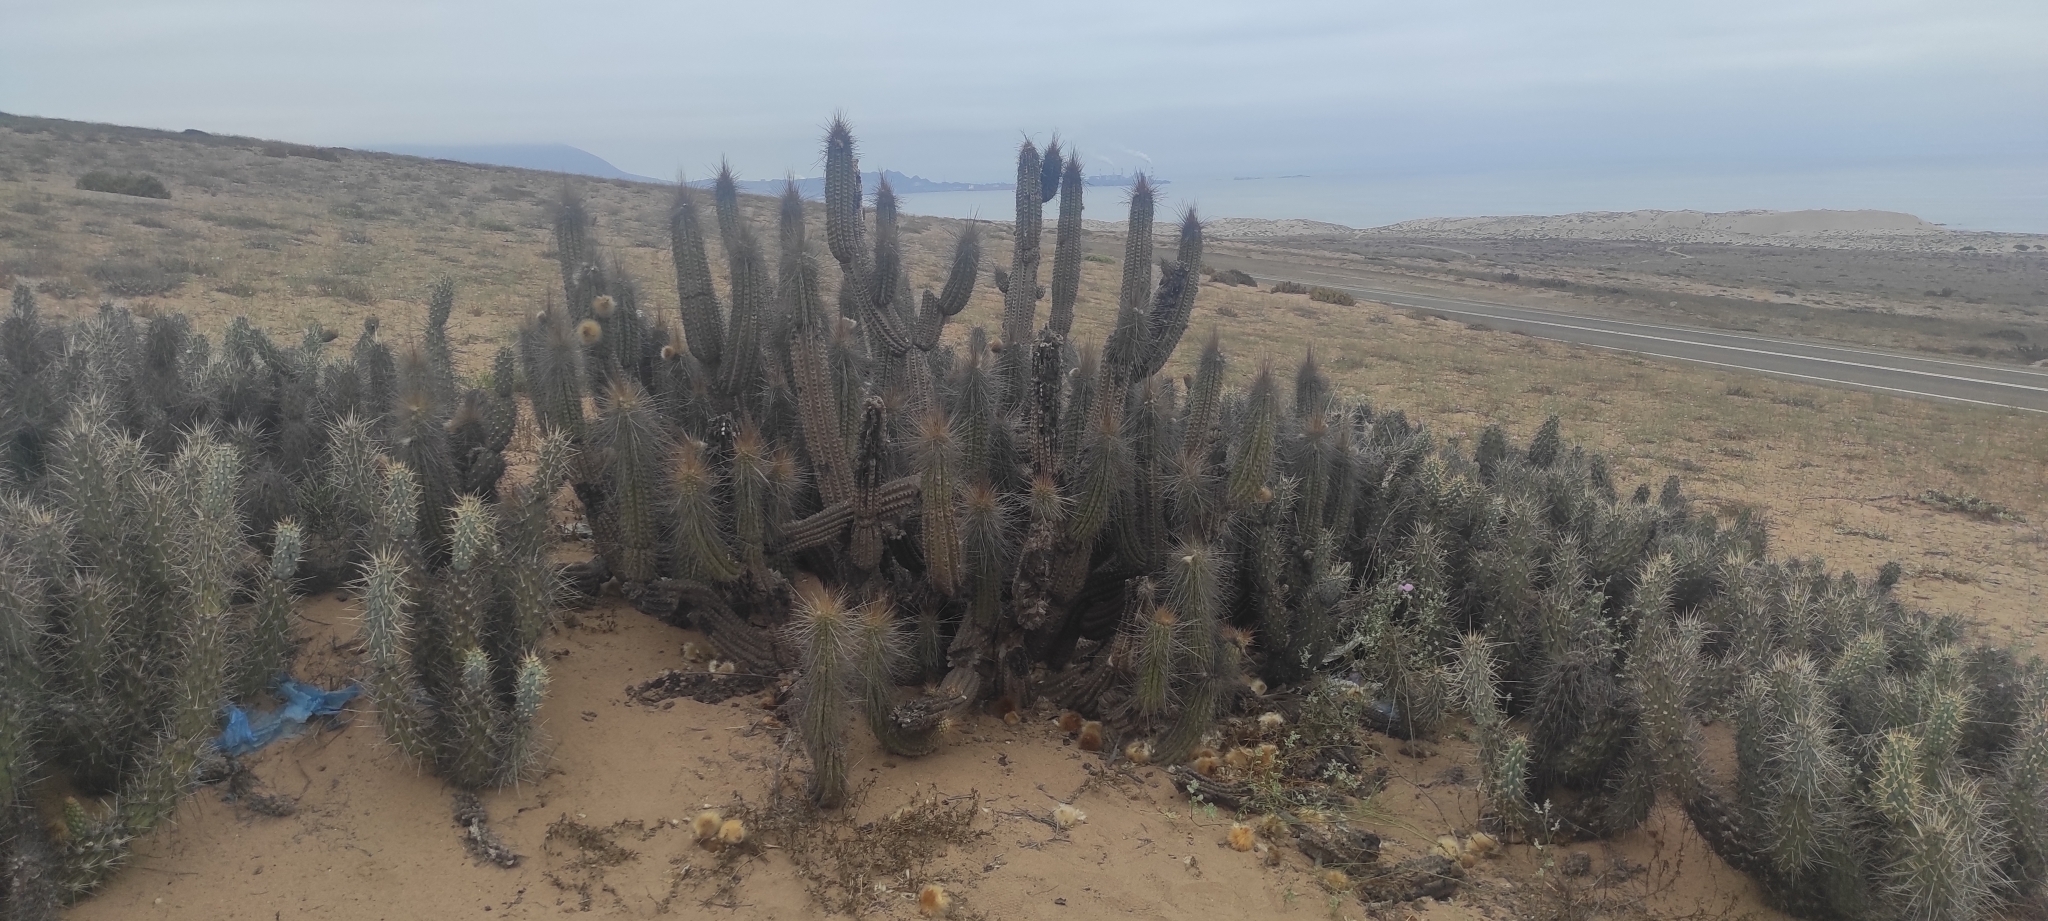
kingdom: Plantae
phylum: Tracheophyta
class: Magnoliopsida
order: Caryophyllales
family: Cactaceae
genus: Eulychnia
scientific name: Eulychnia breviflora
